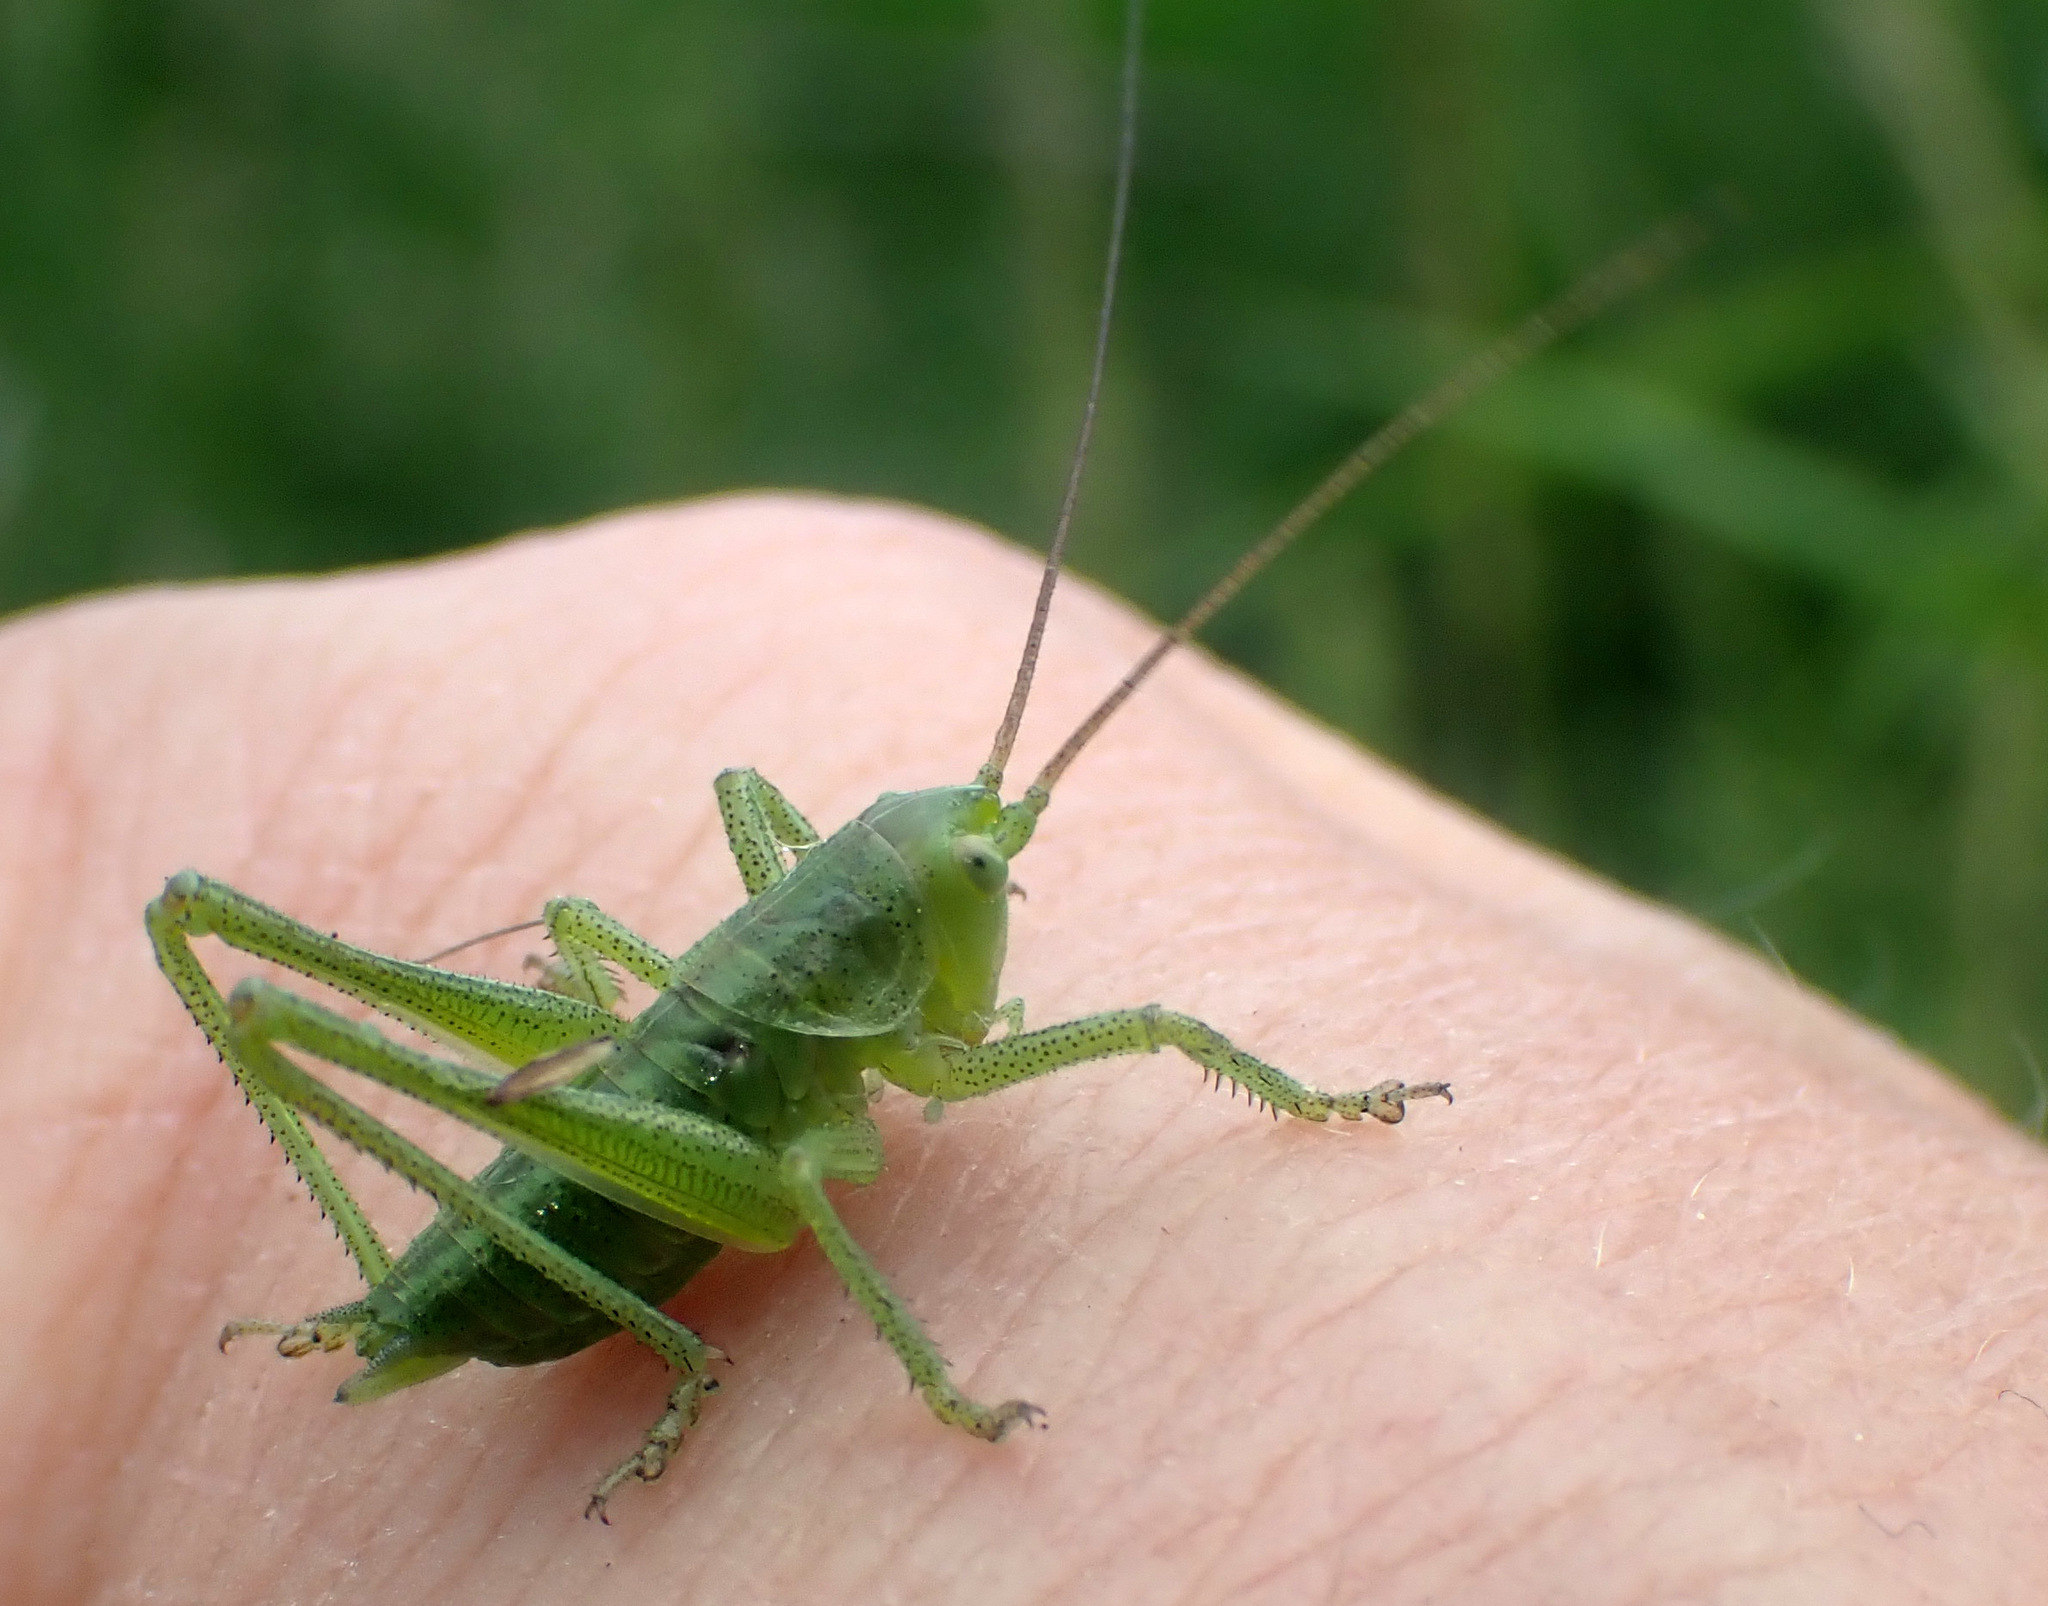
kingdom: Animalia
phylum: Arthropoda
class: Insecta
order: Orthoptera
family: Tettigoniidae
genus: Tettigonia
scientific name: Tettigonia viridissima
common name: Great green bush-cricket
